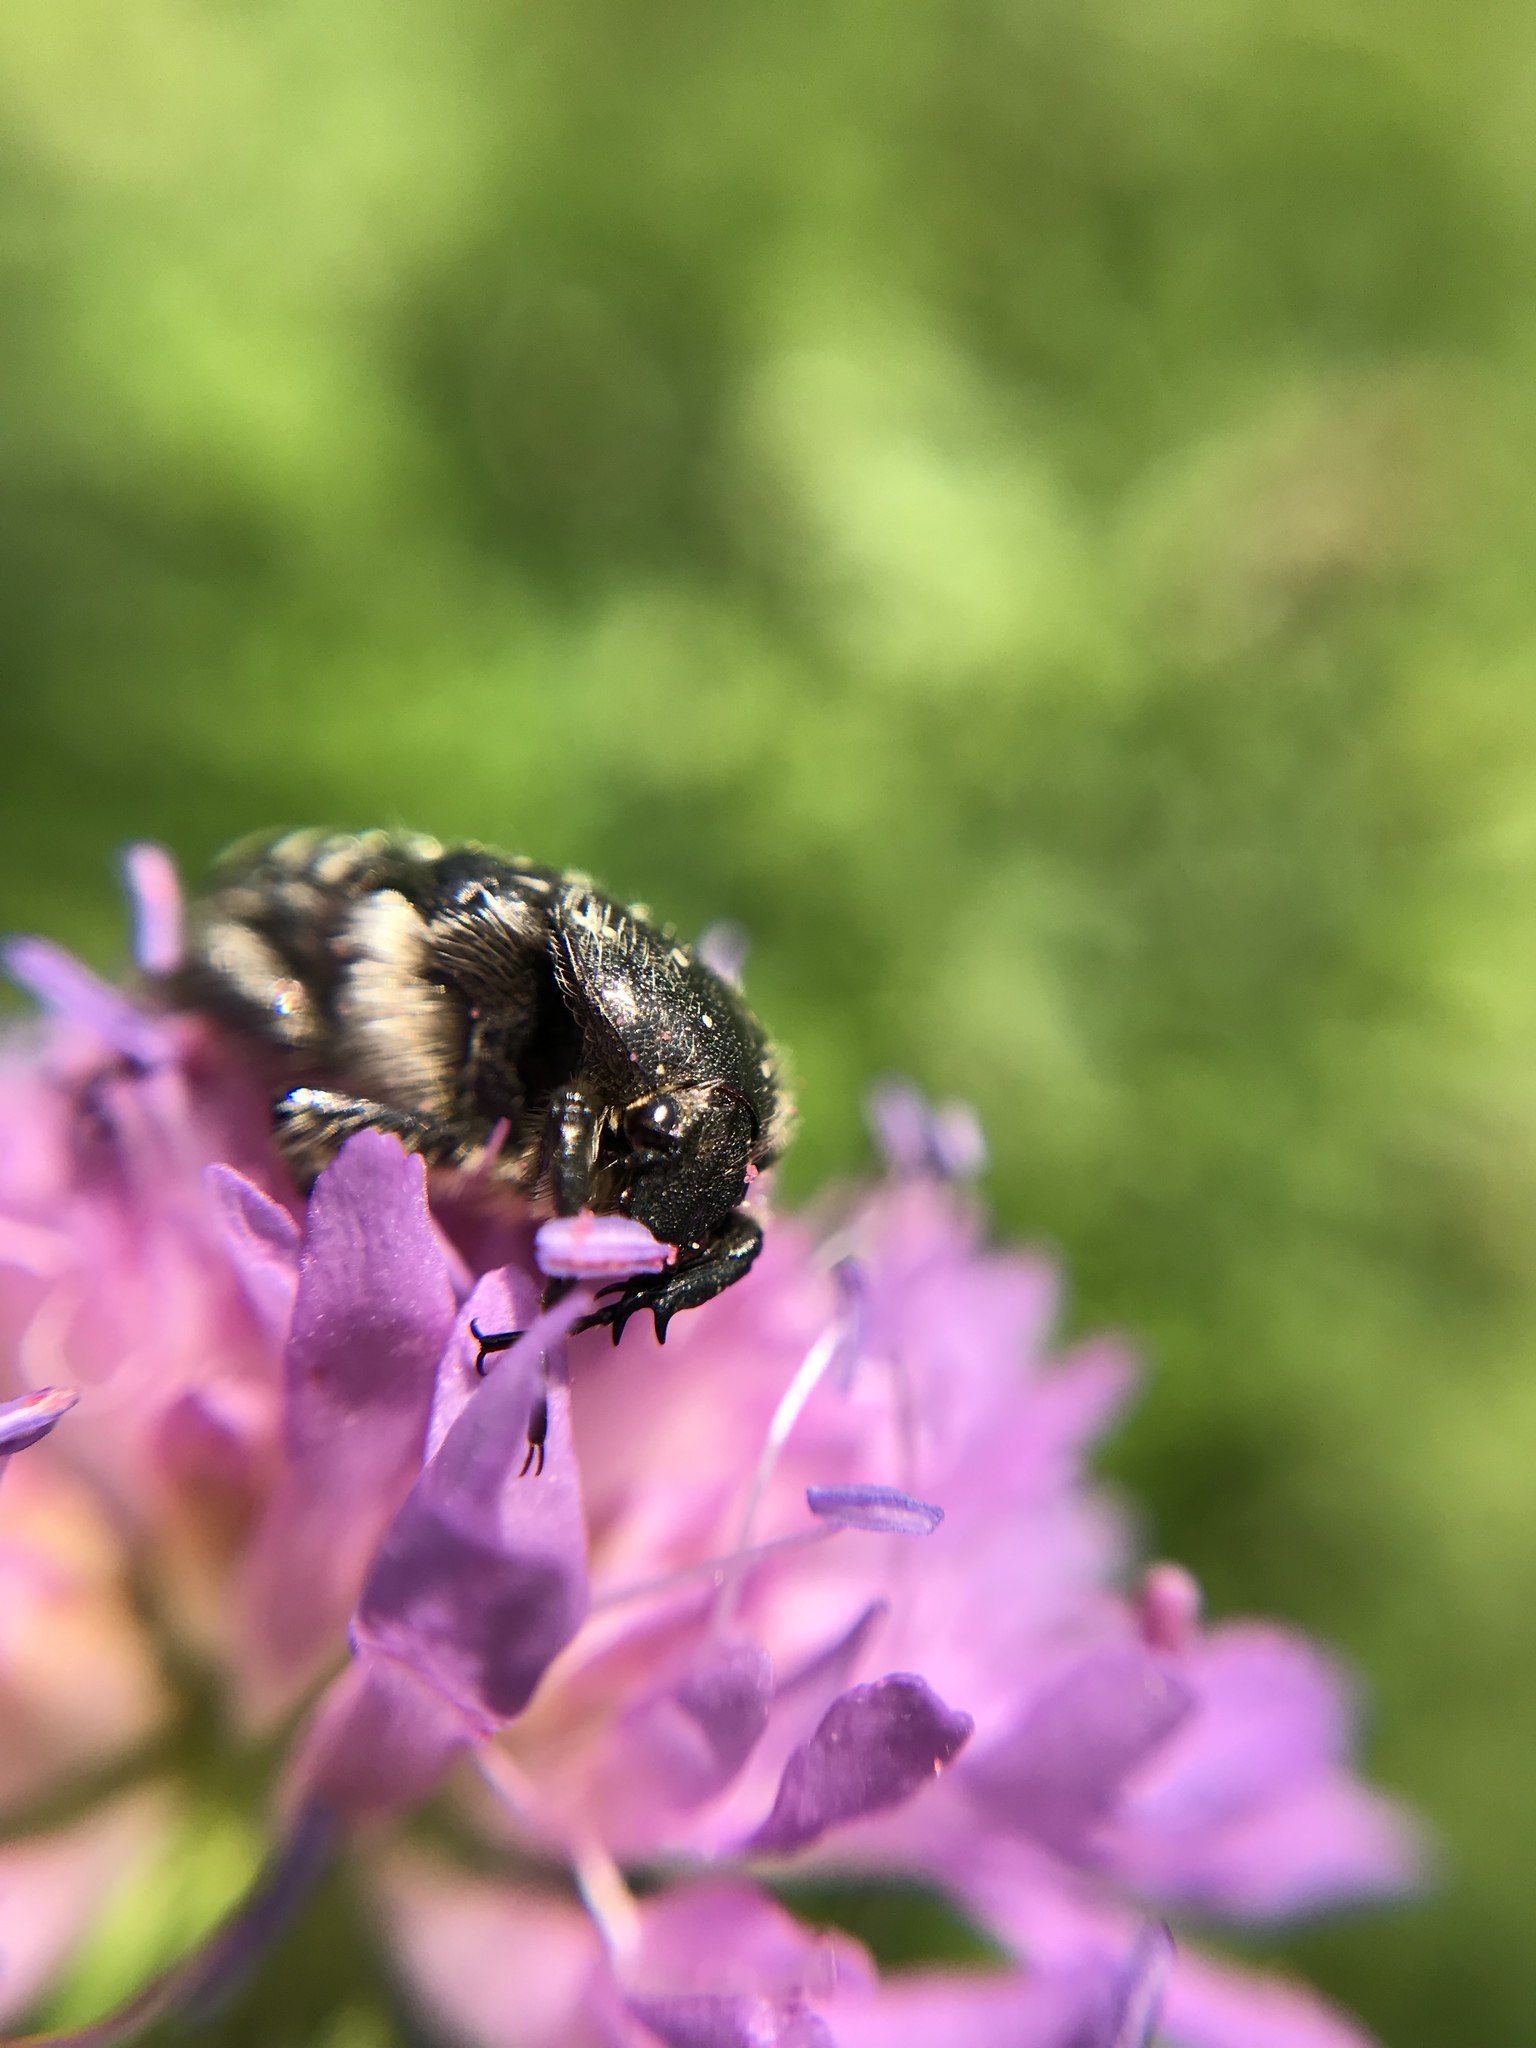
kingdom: Animalia
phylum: Arthropoda
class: Insecta
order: Coleoptera
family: Scarabaeidae
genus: Oxythyrea
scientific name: Oxythyrea funesta
